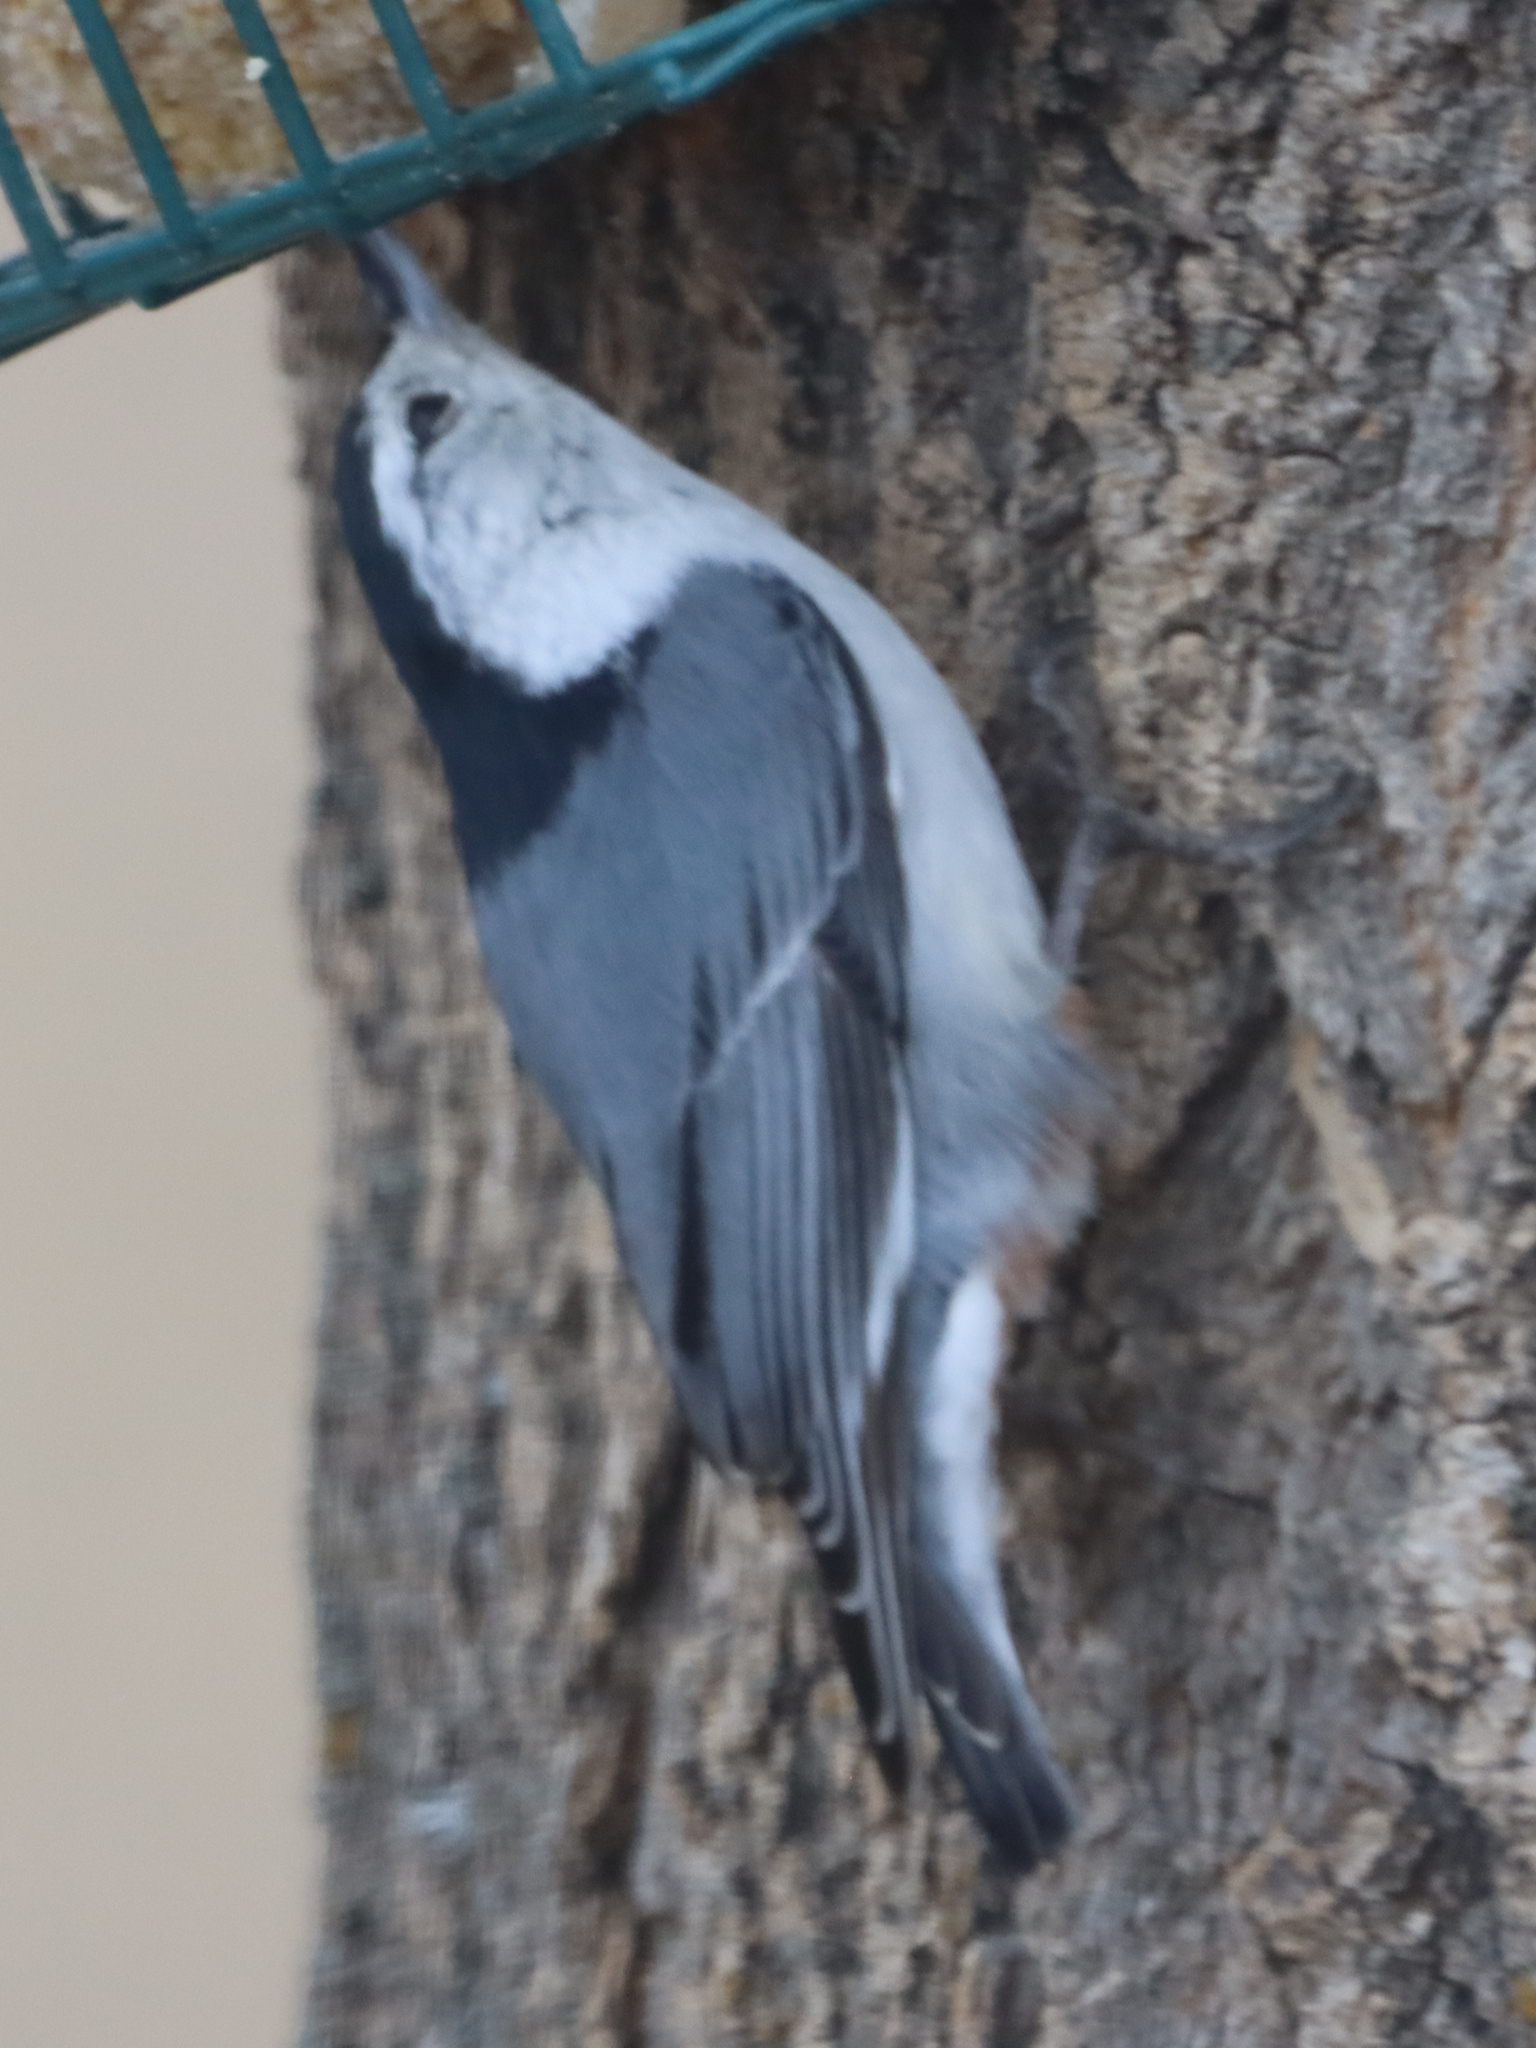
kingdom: Animalia
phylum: Chordata
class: Aves
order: Passeriformes
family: Sittidae
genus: Sitta
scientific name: Sitta carolinensis
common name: White-breasted nuthatch
